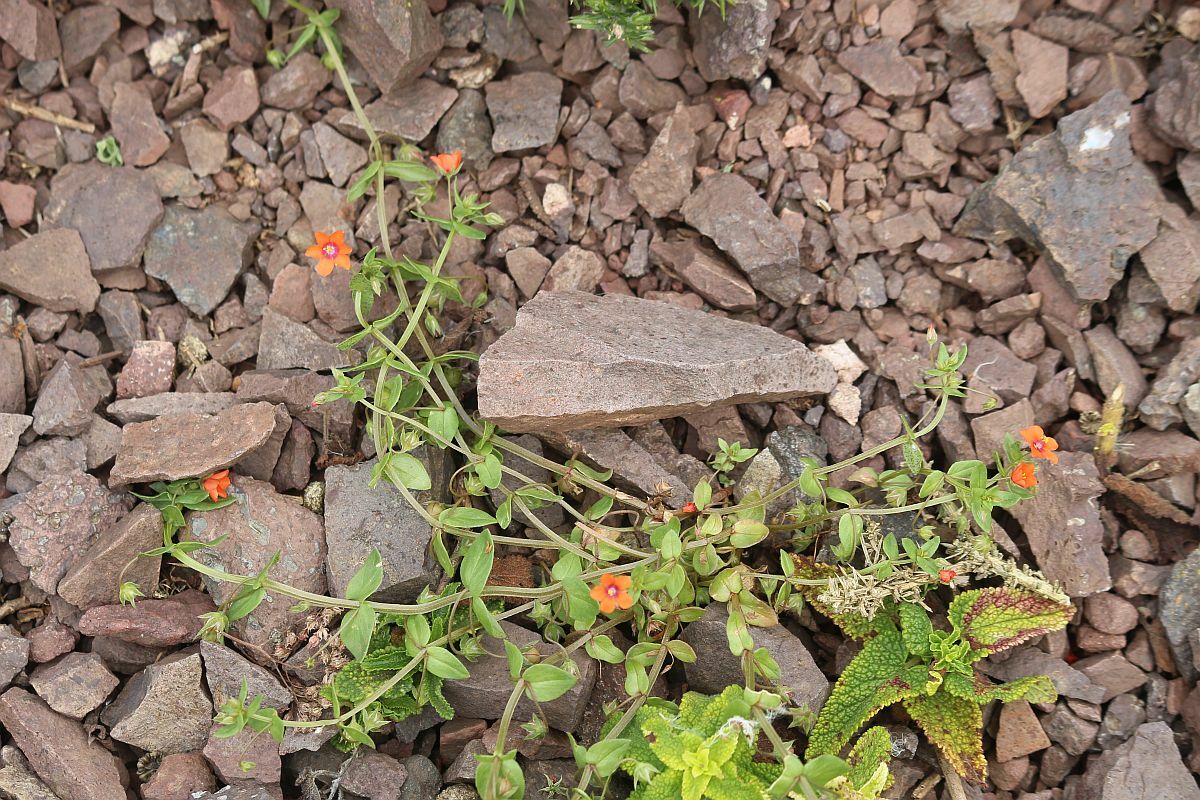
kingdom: Plantae
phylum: Tracheophyta
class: Magnoliopsida
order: Ericales
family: Primulaceae
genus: Lysimachia
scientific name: Lysimachia arvensis
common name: Scarlet pimpernel
